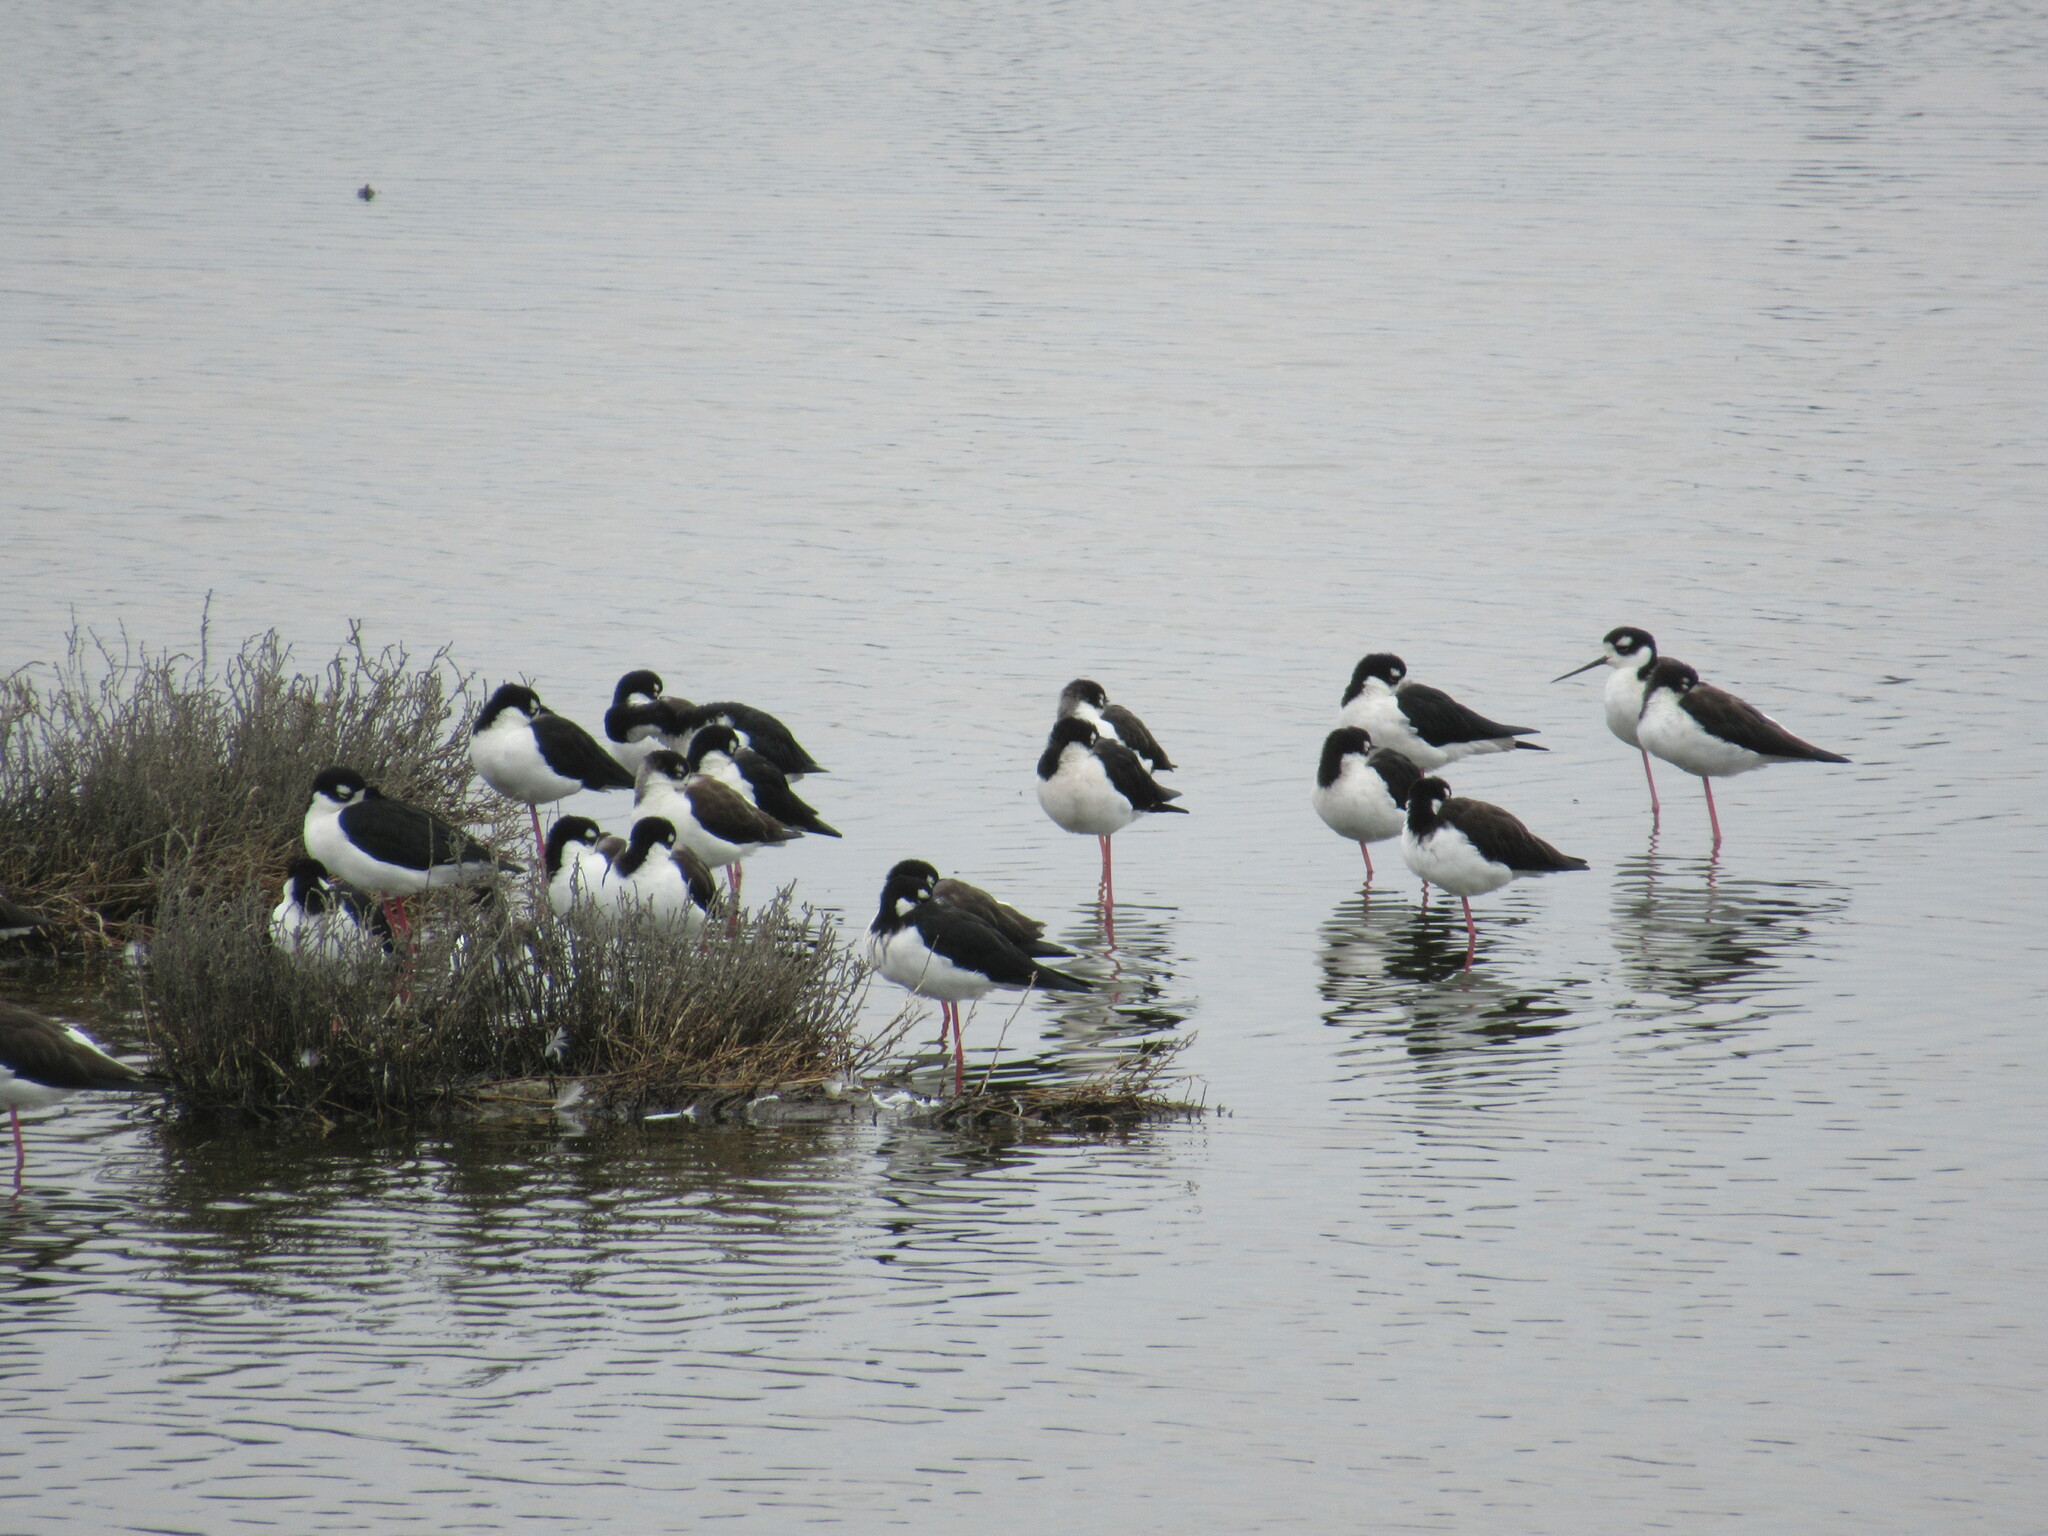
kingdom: Animalia
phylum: Chordata
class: Aves
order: Charadriiformes
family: Recurvirostridae
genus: Himantopus
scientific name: Himantopus mexicanus
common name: Black-necked stilt
